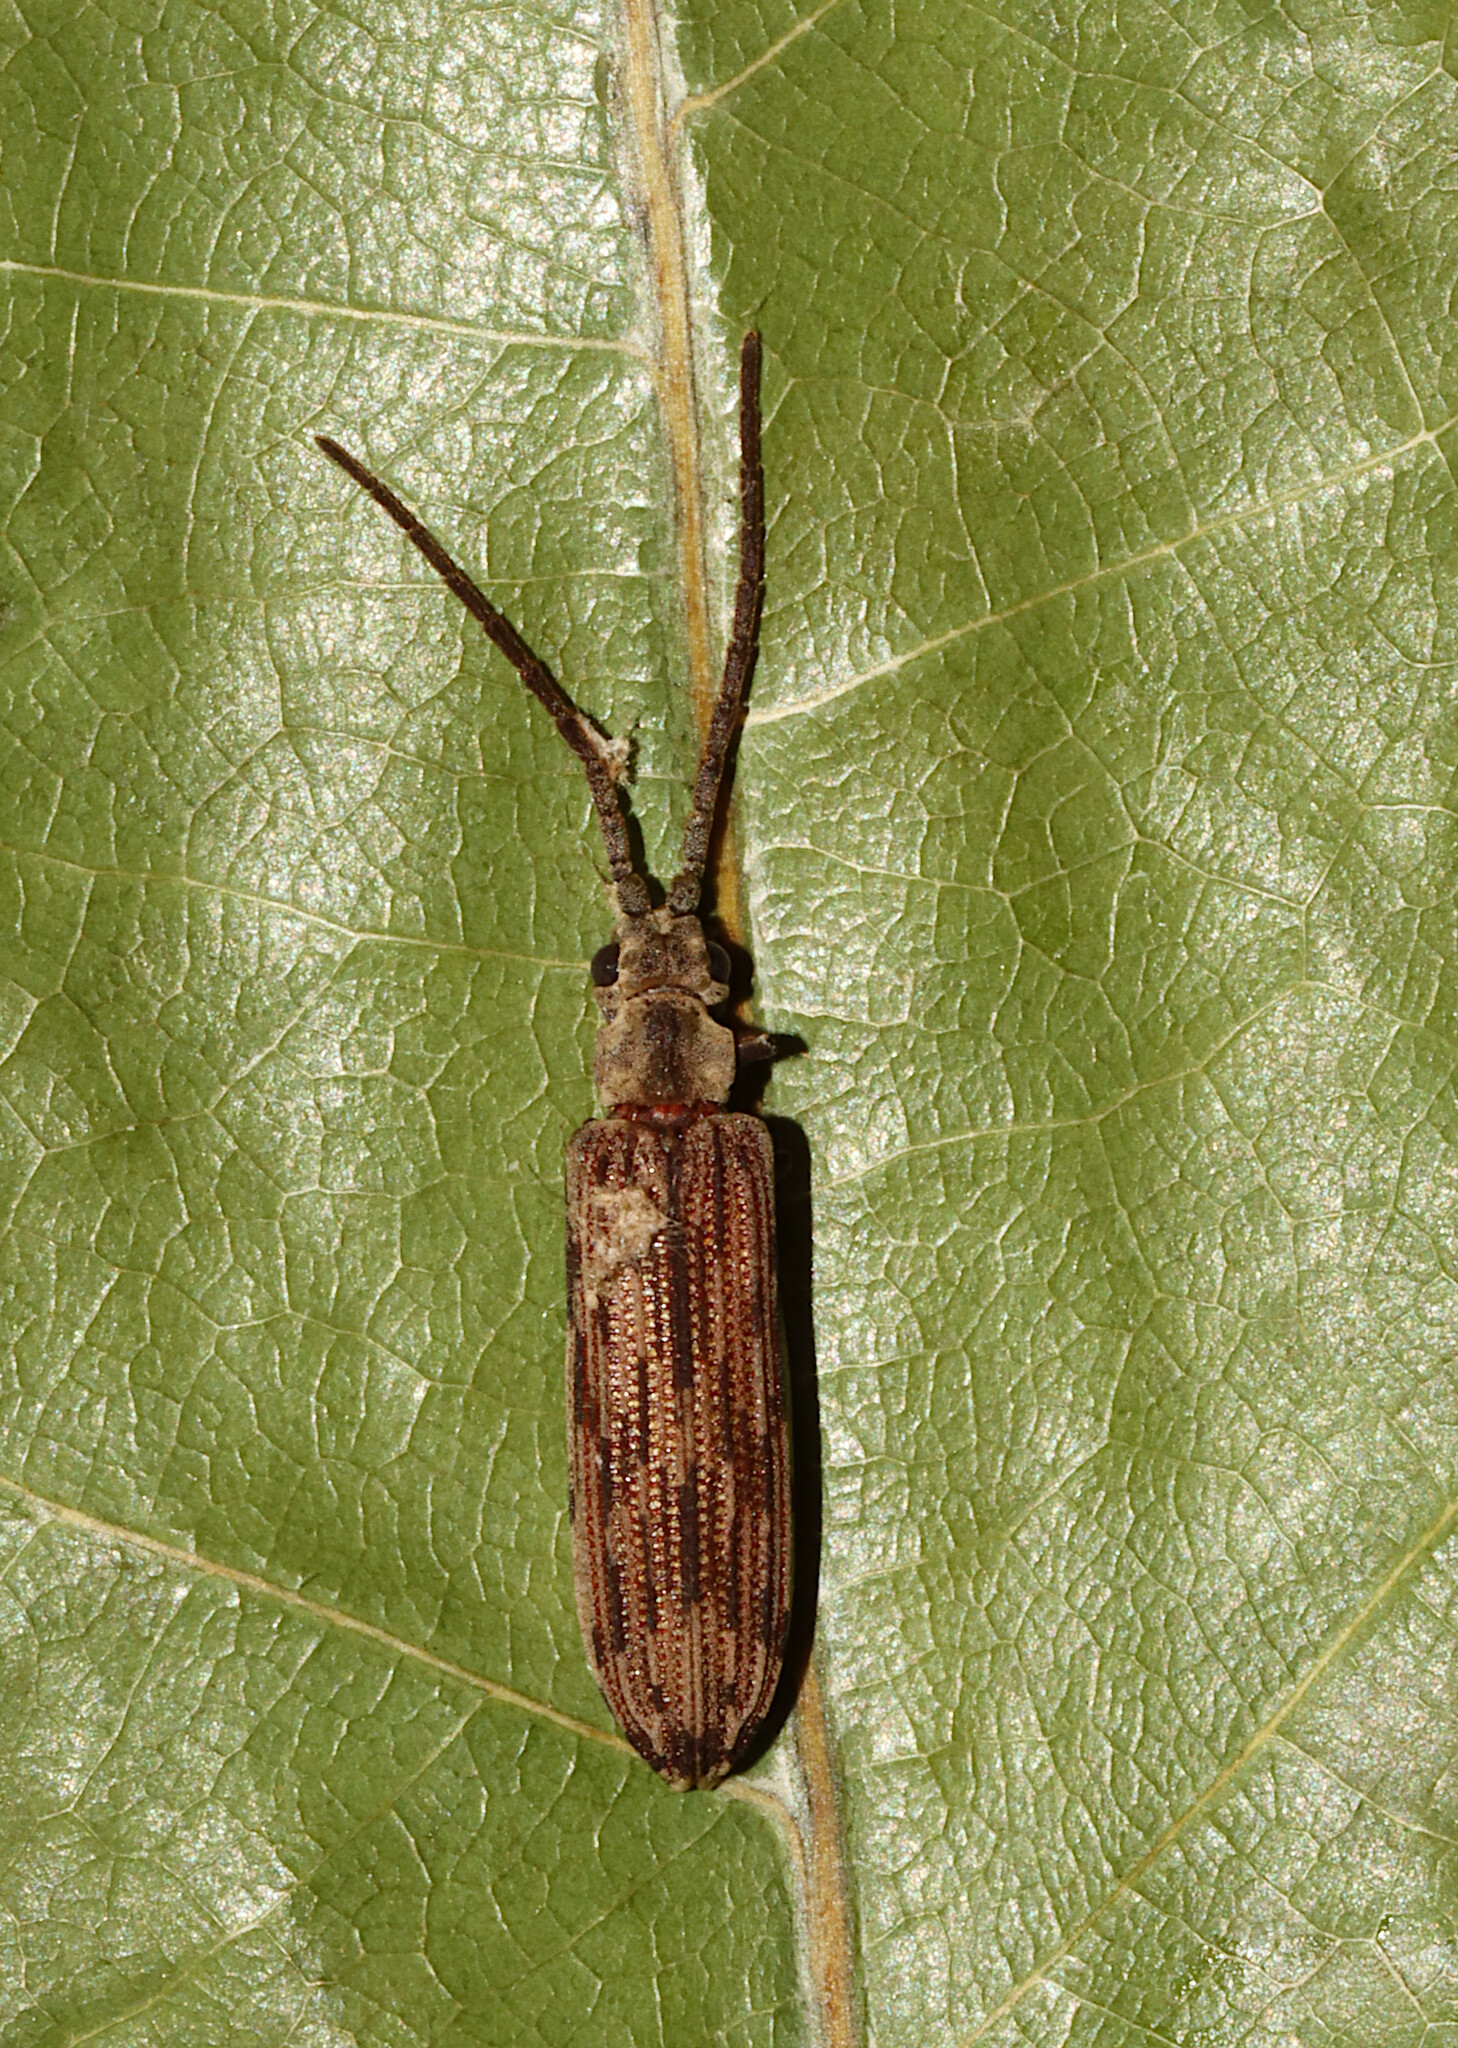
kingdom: Animalia
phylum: Arthropoda
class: Insecta
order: Coleoptera
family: Cupedidae
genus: Tenomerga
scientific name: Tenomerga cinerea
